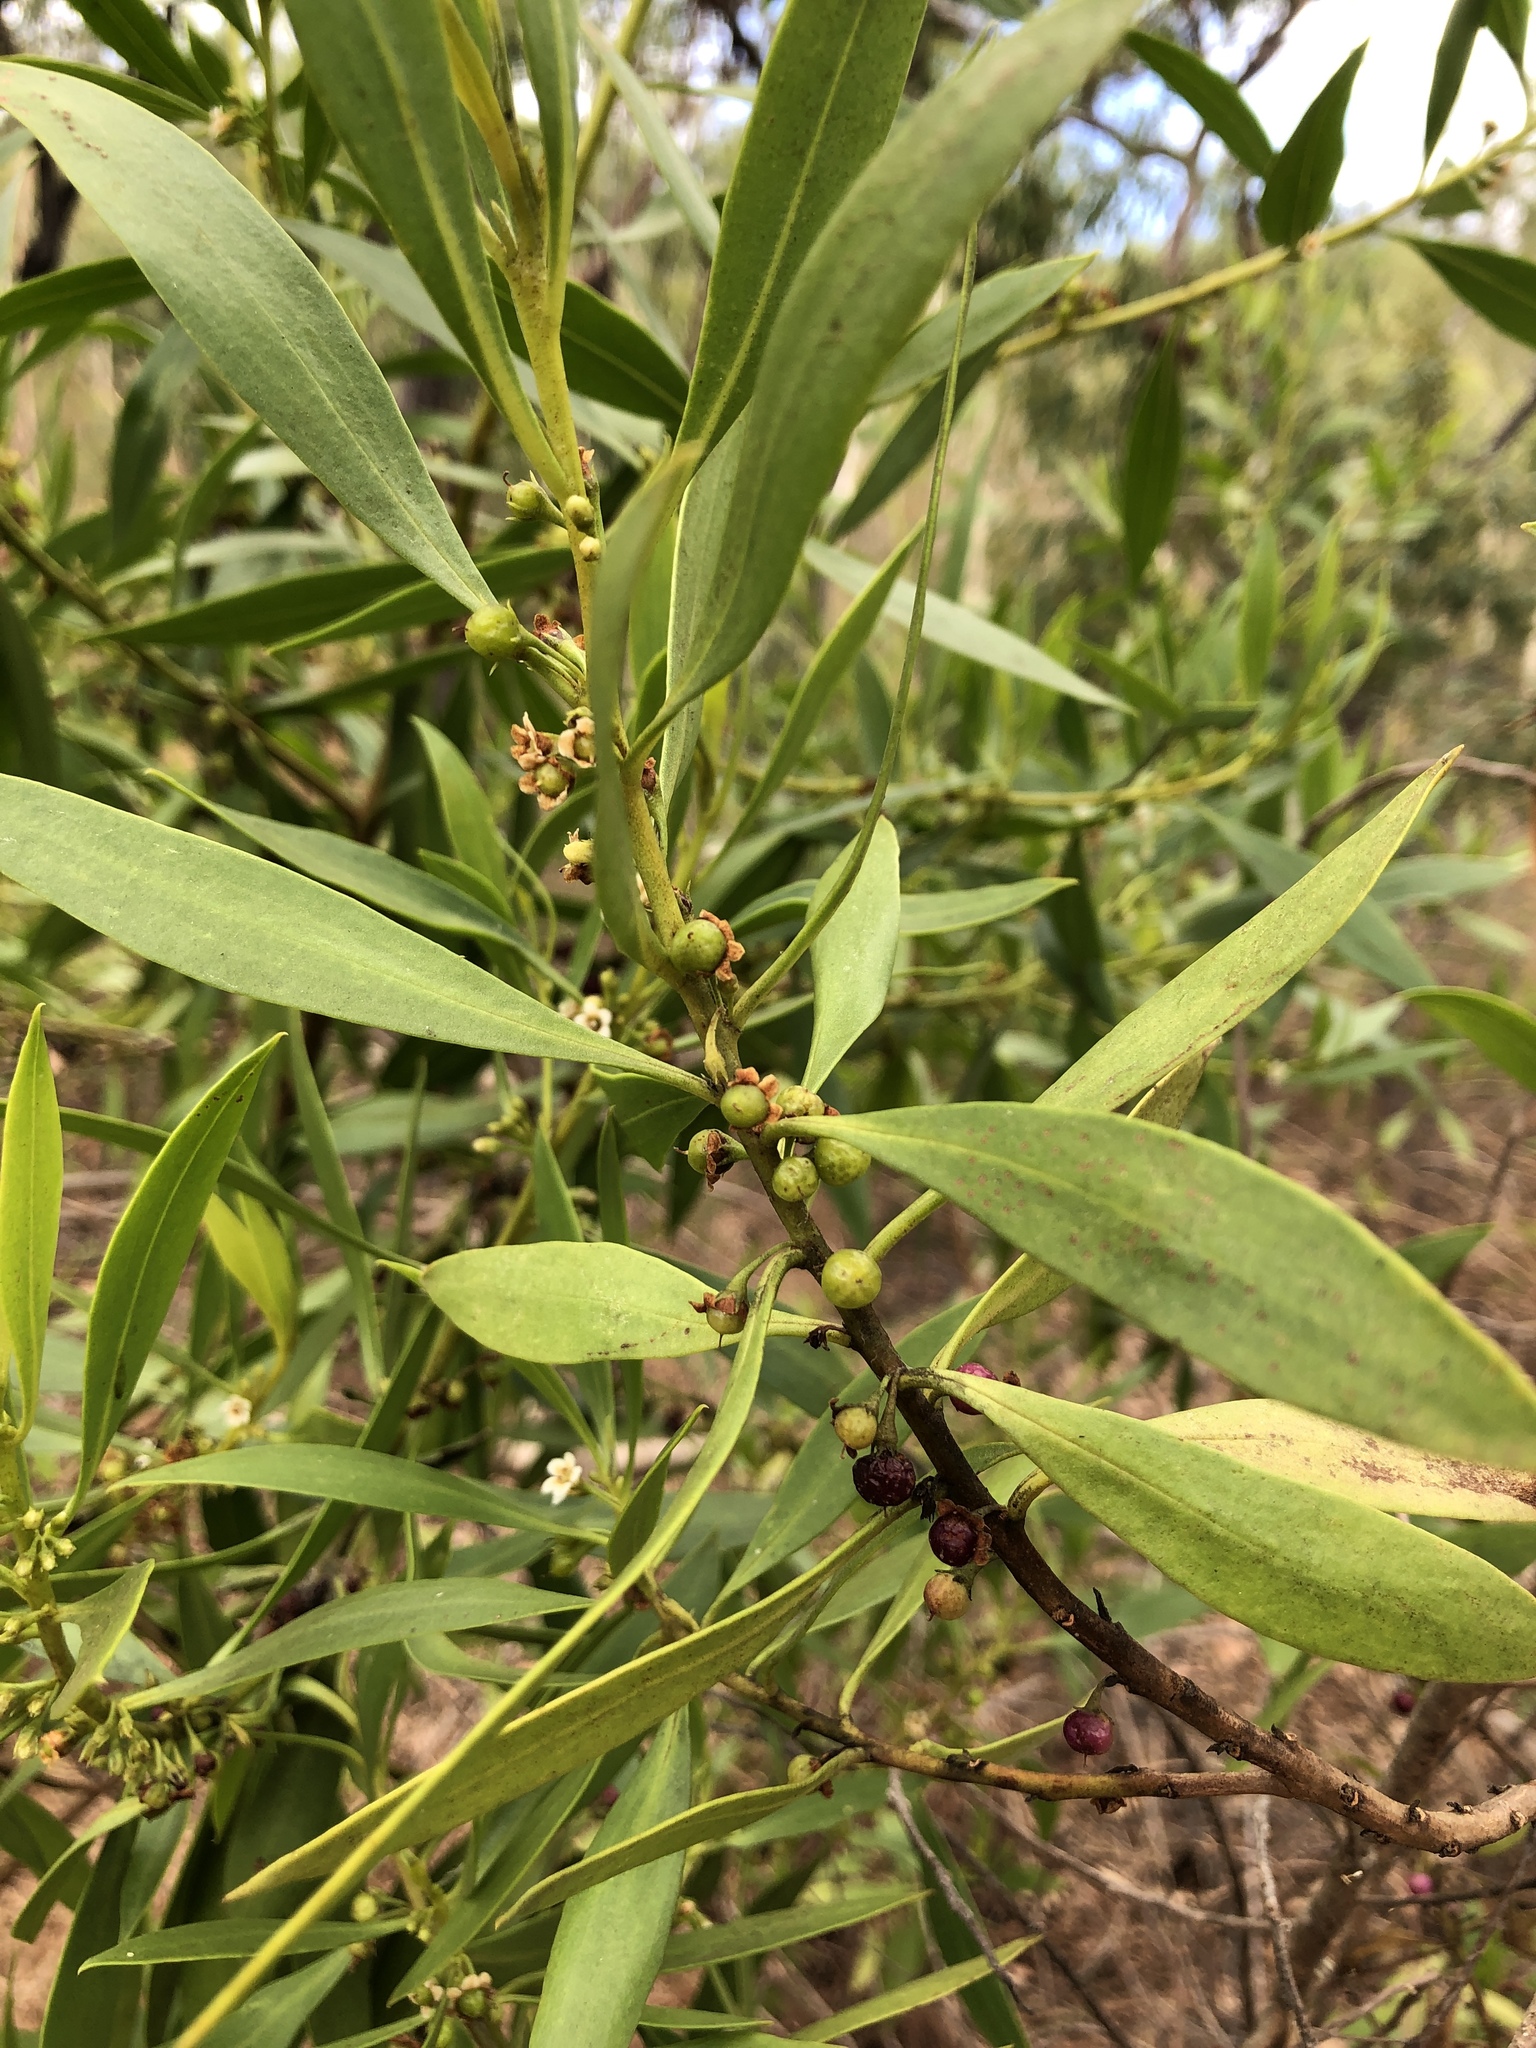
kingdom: Plantae
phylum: Tracheophyta
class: Magnoliopsida
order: Lamiales
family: Scrophulariaceae
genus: Myoporum
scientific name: Myoporum acuminatum
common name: Pointed boobialla
